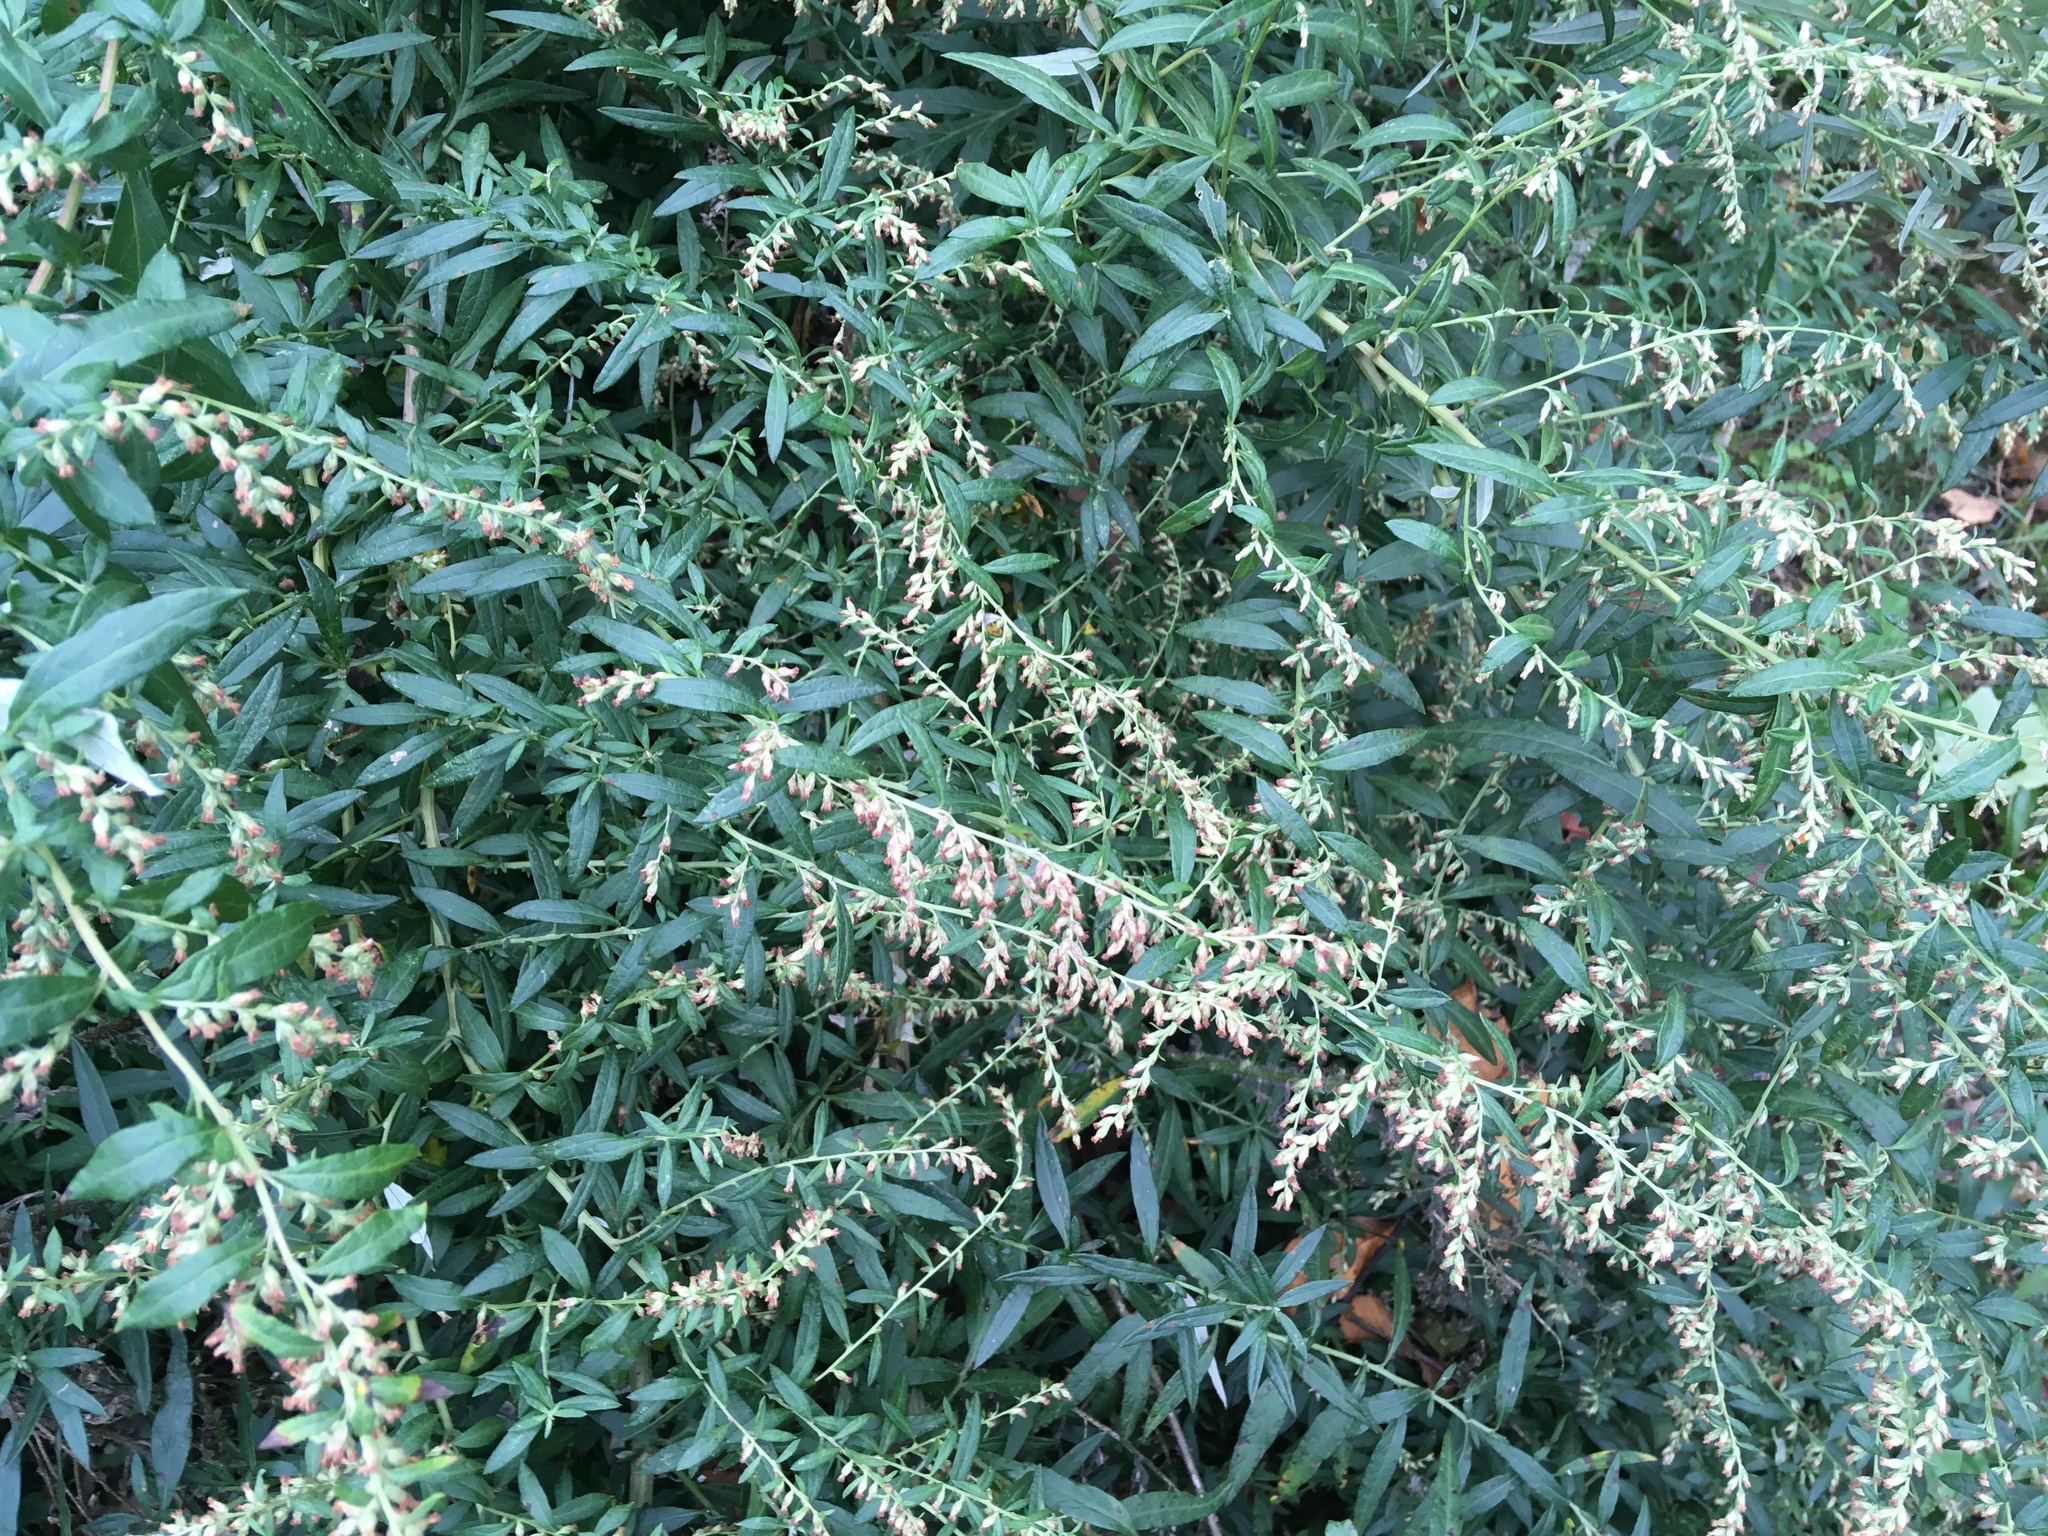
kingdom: Plantae
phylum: Tracheophyta
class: Magnoliopsida
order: Asterales
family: Asteraceae
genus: Artemisia
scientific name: Artemisia vulgaris
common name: Mugwort
